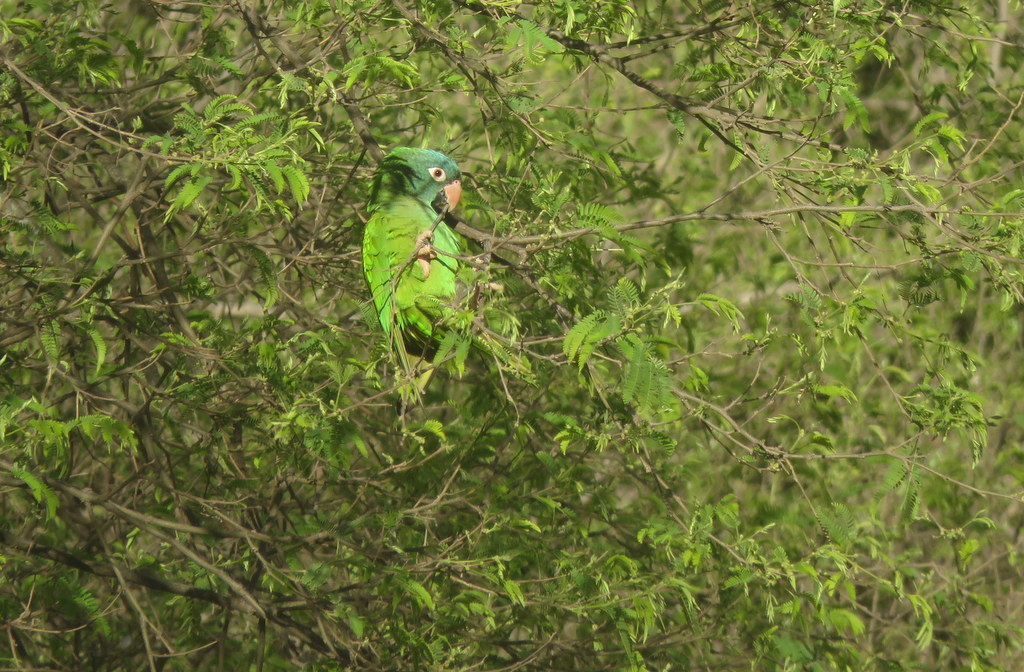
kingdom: Animalia
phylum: Chordata
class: Aves
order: Psittaciformes
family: Psittacidae
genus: Aratinga
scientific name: Aratinga acuticaudata
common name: Blue-crowned parakeet
